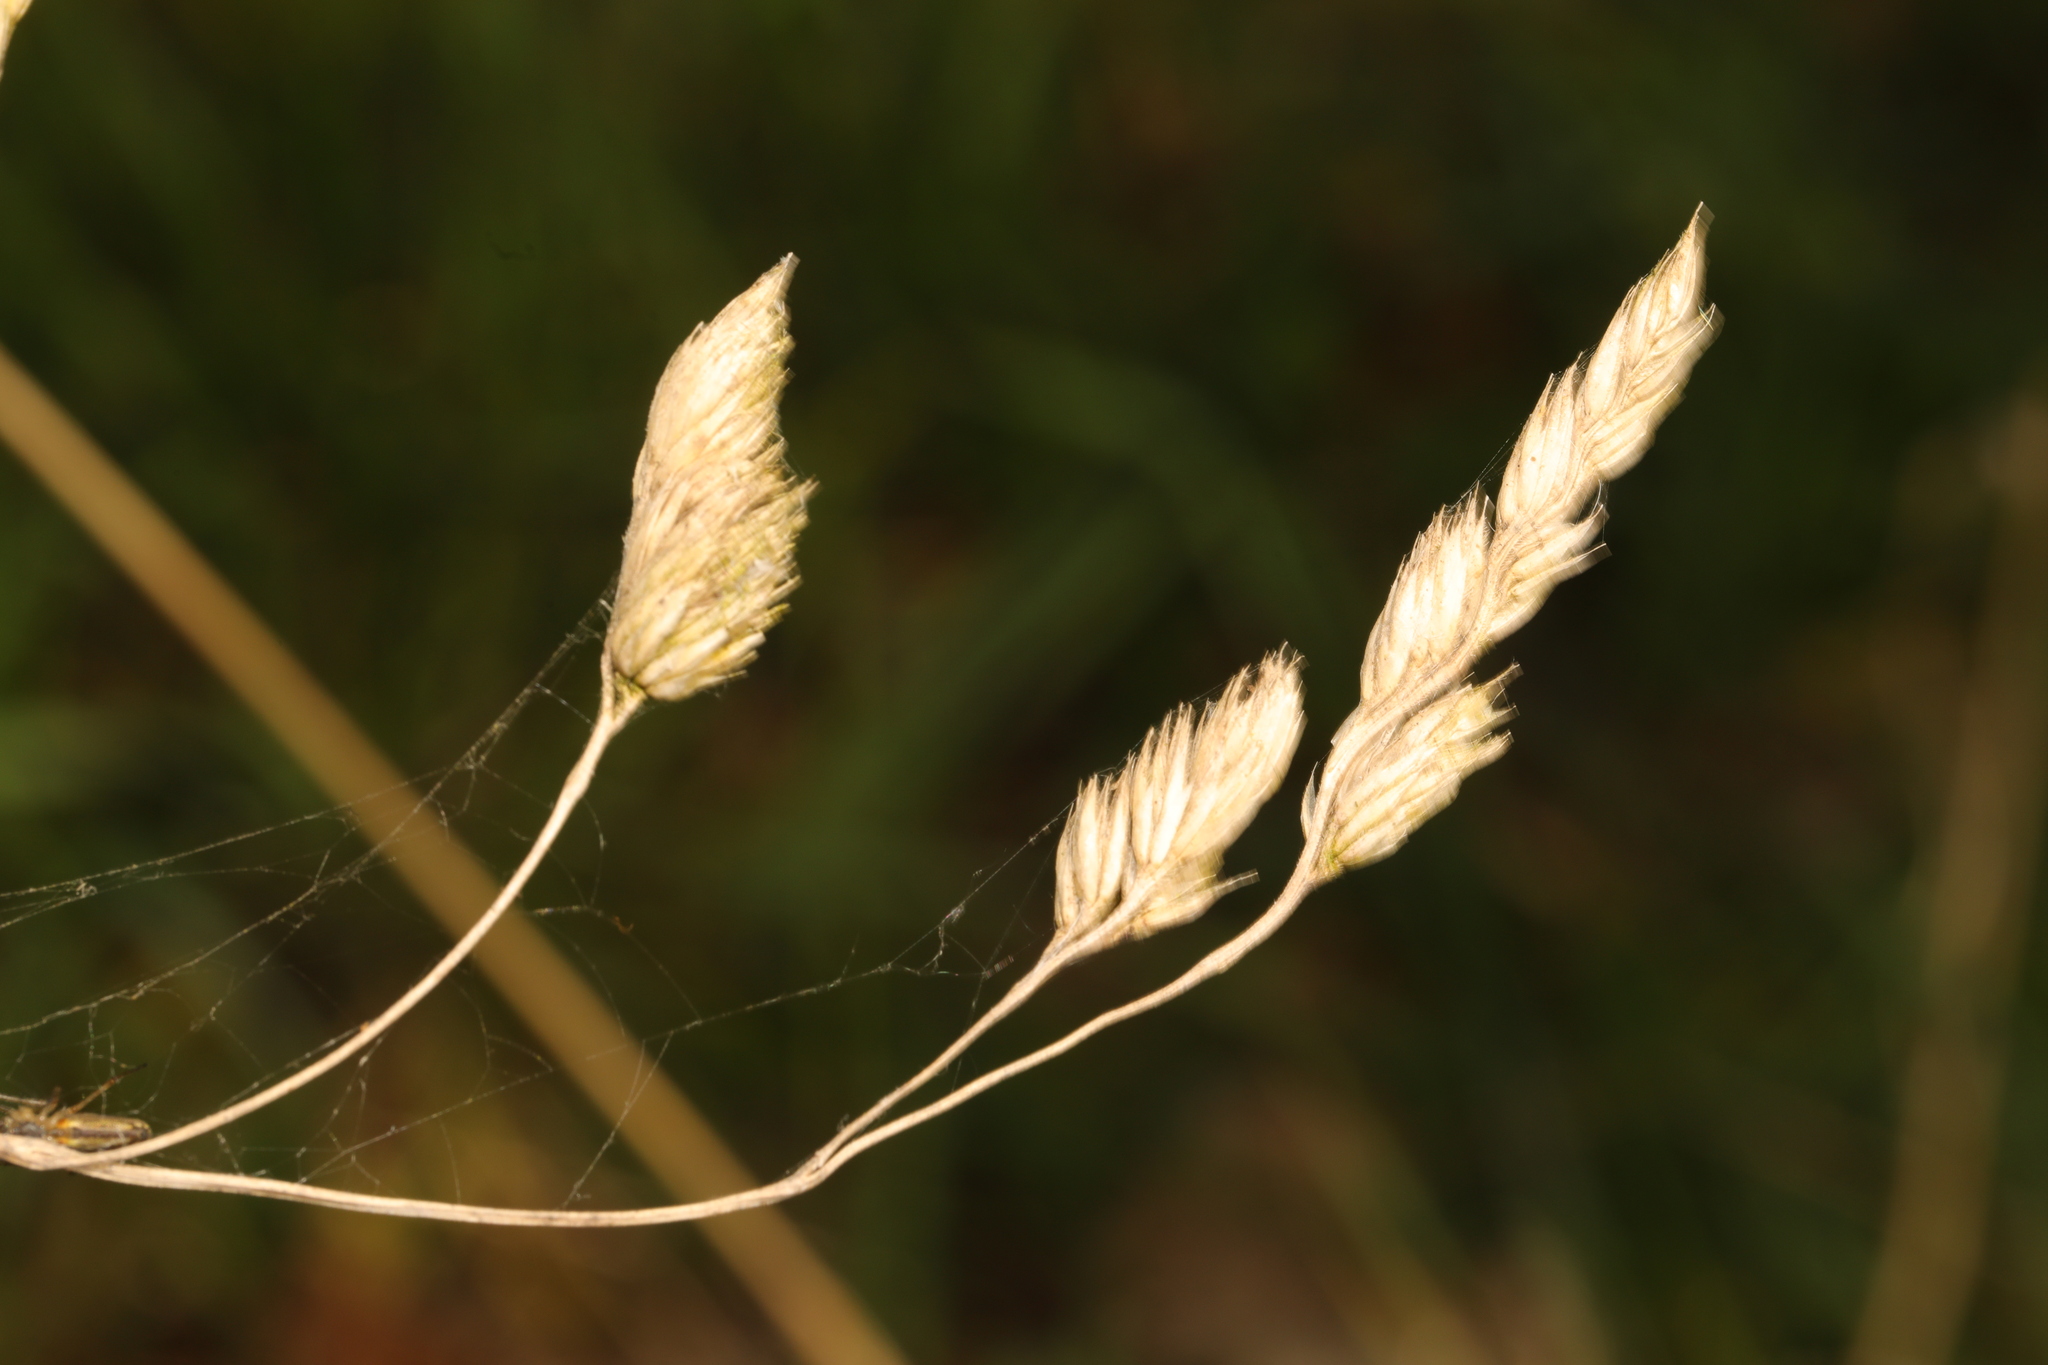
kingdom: Plantae
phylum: Tracheophyta
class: Liliopsida
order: Poales
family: Poaceae
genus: Dactylis
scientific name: Dactylis glomerata
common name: Orchardgrass
